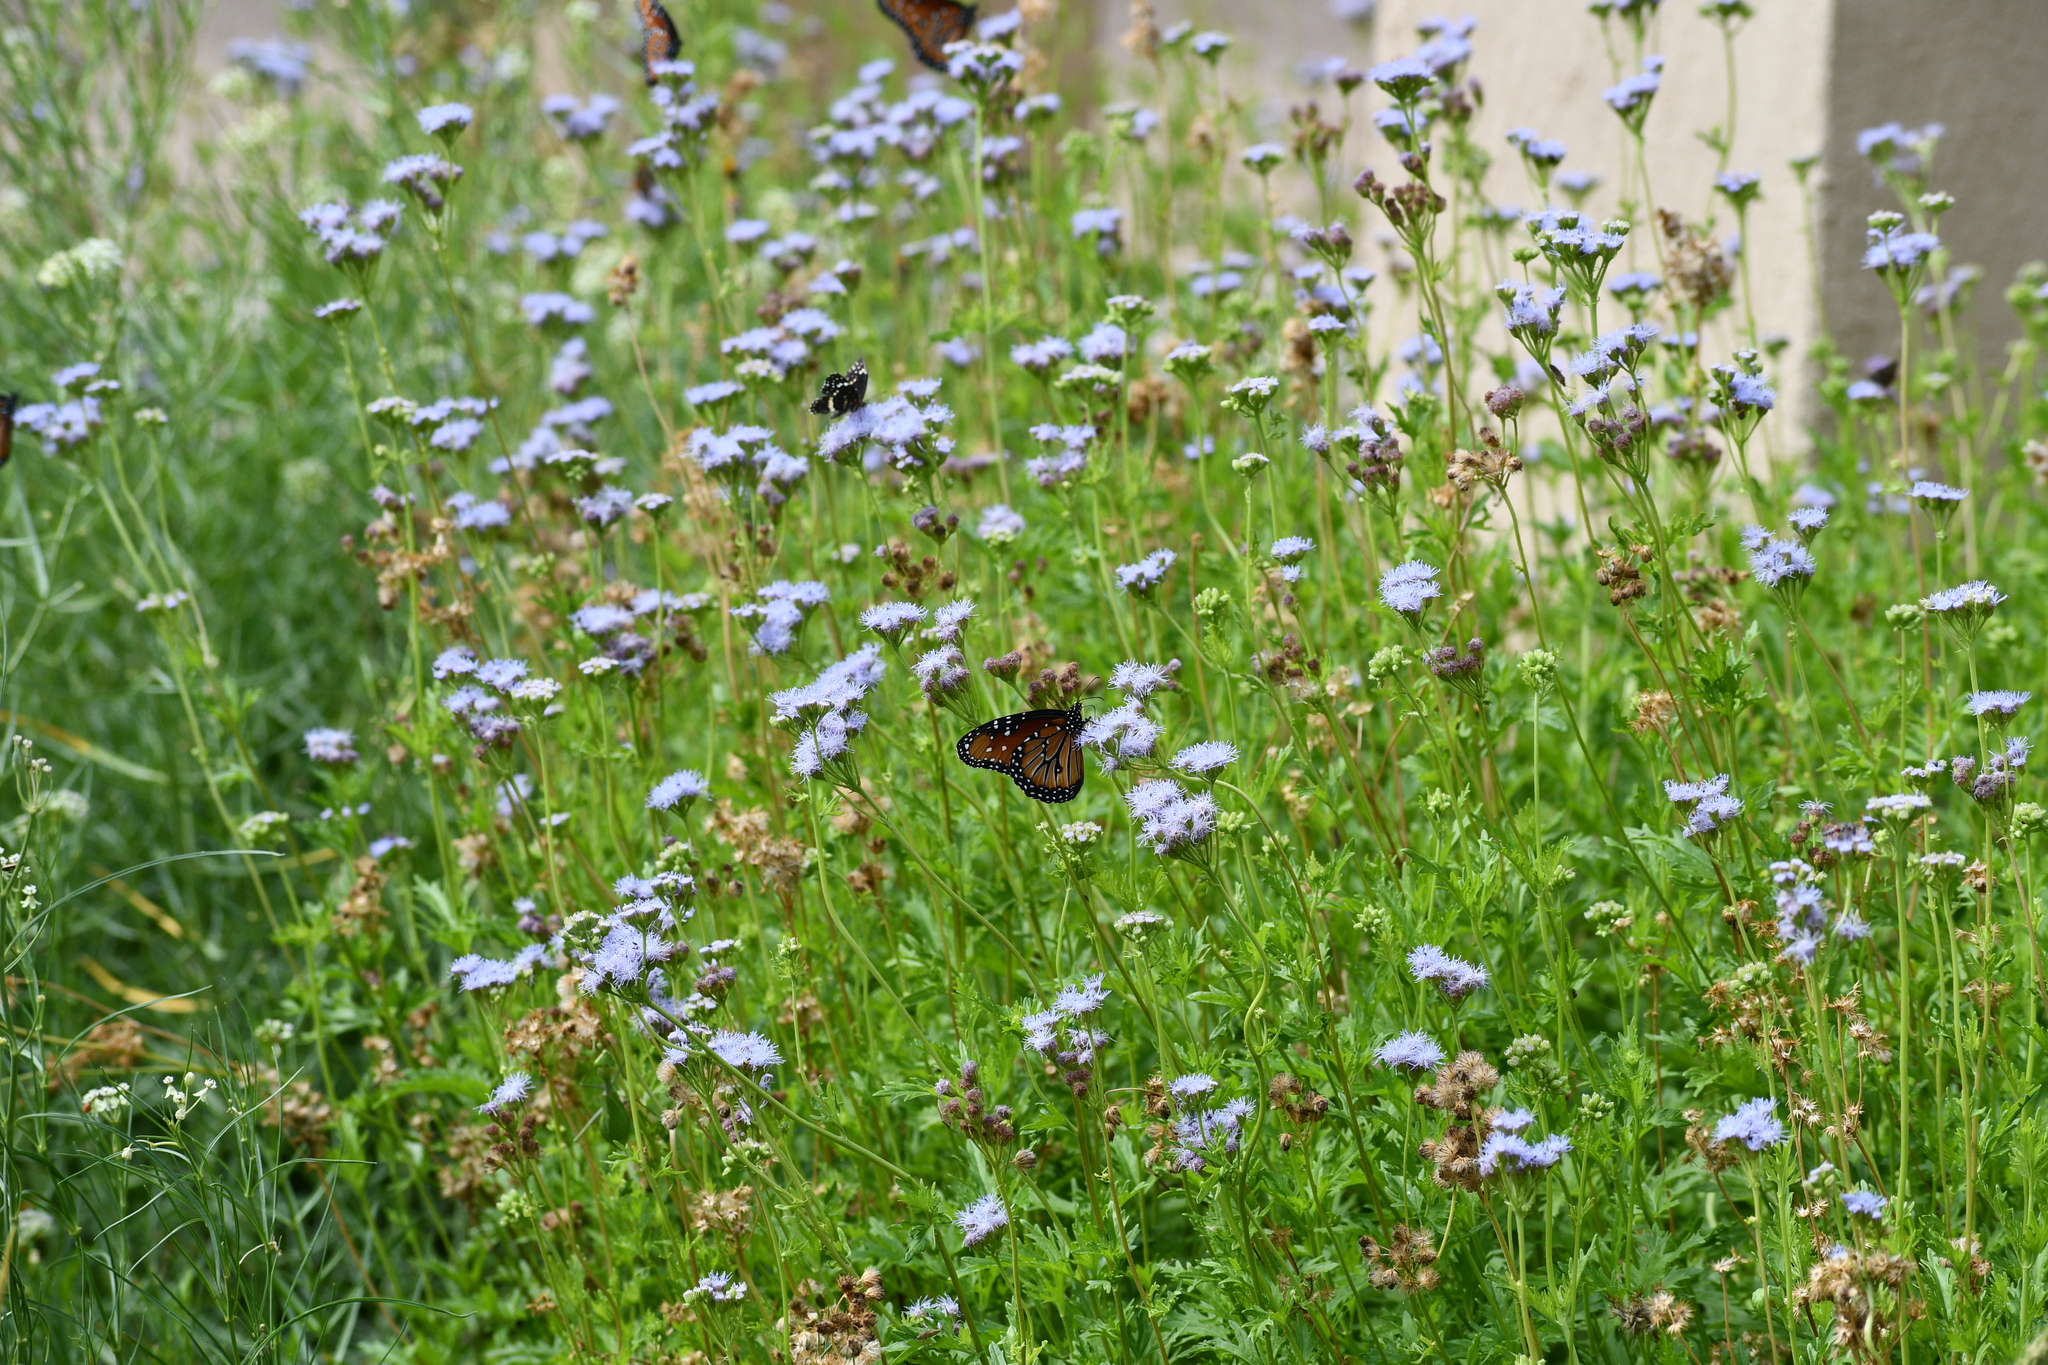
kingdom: Animalia
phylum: Arthropoda
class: Insecta
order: Lepidoptera
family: Nymphalidae
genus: Danaus
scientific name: Danaus gilippus
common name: Queen
